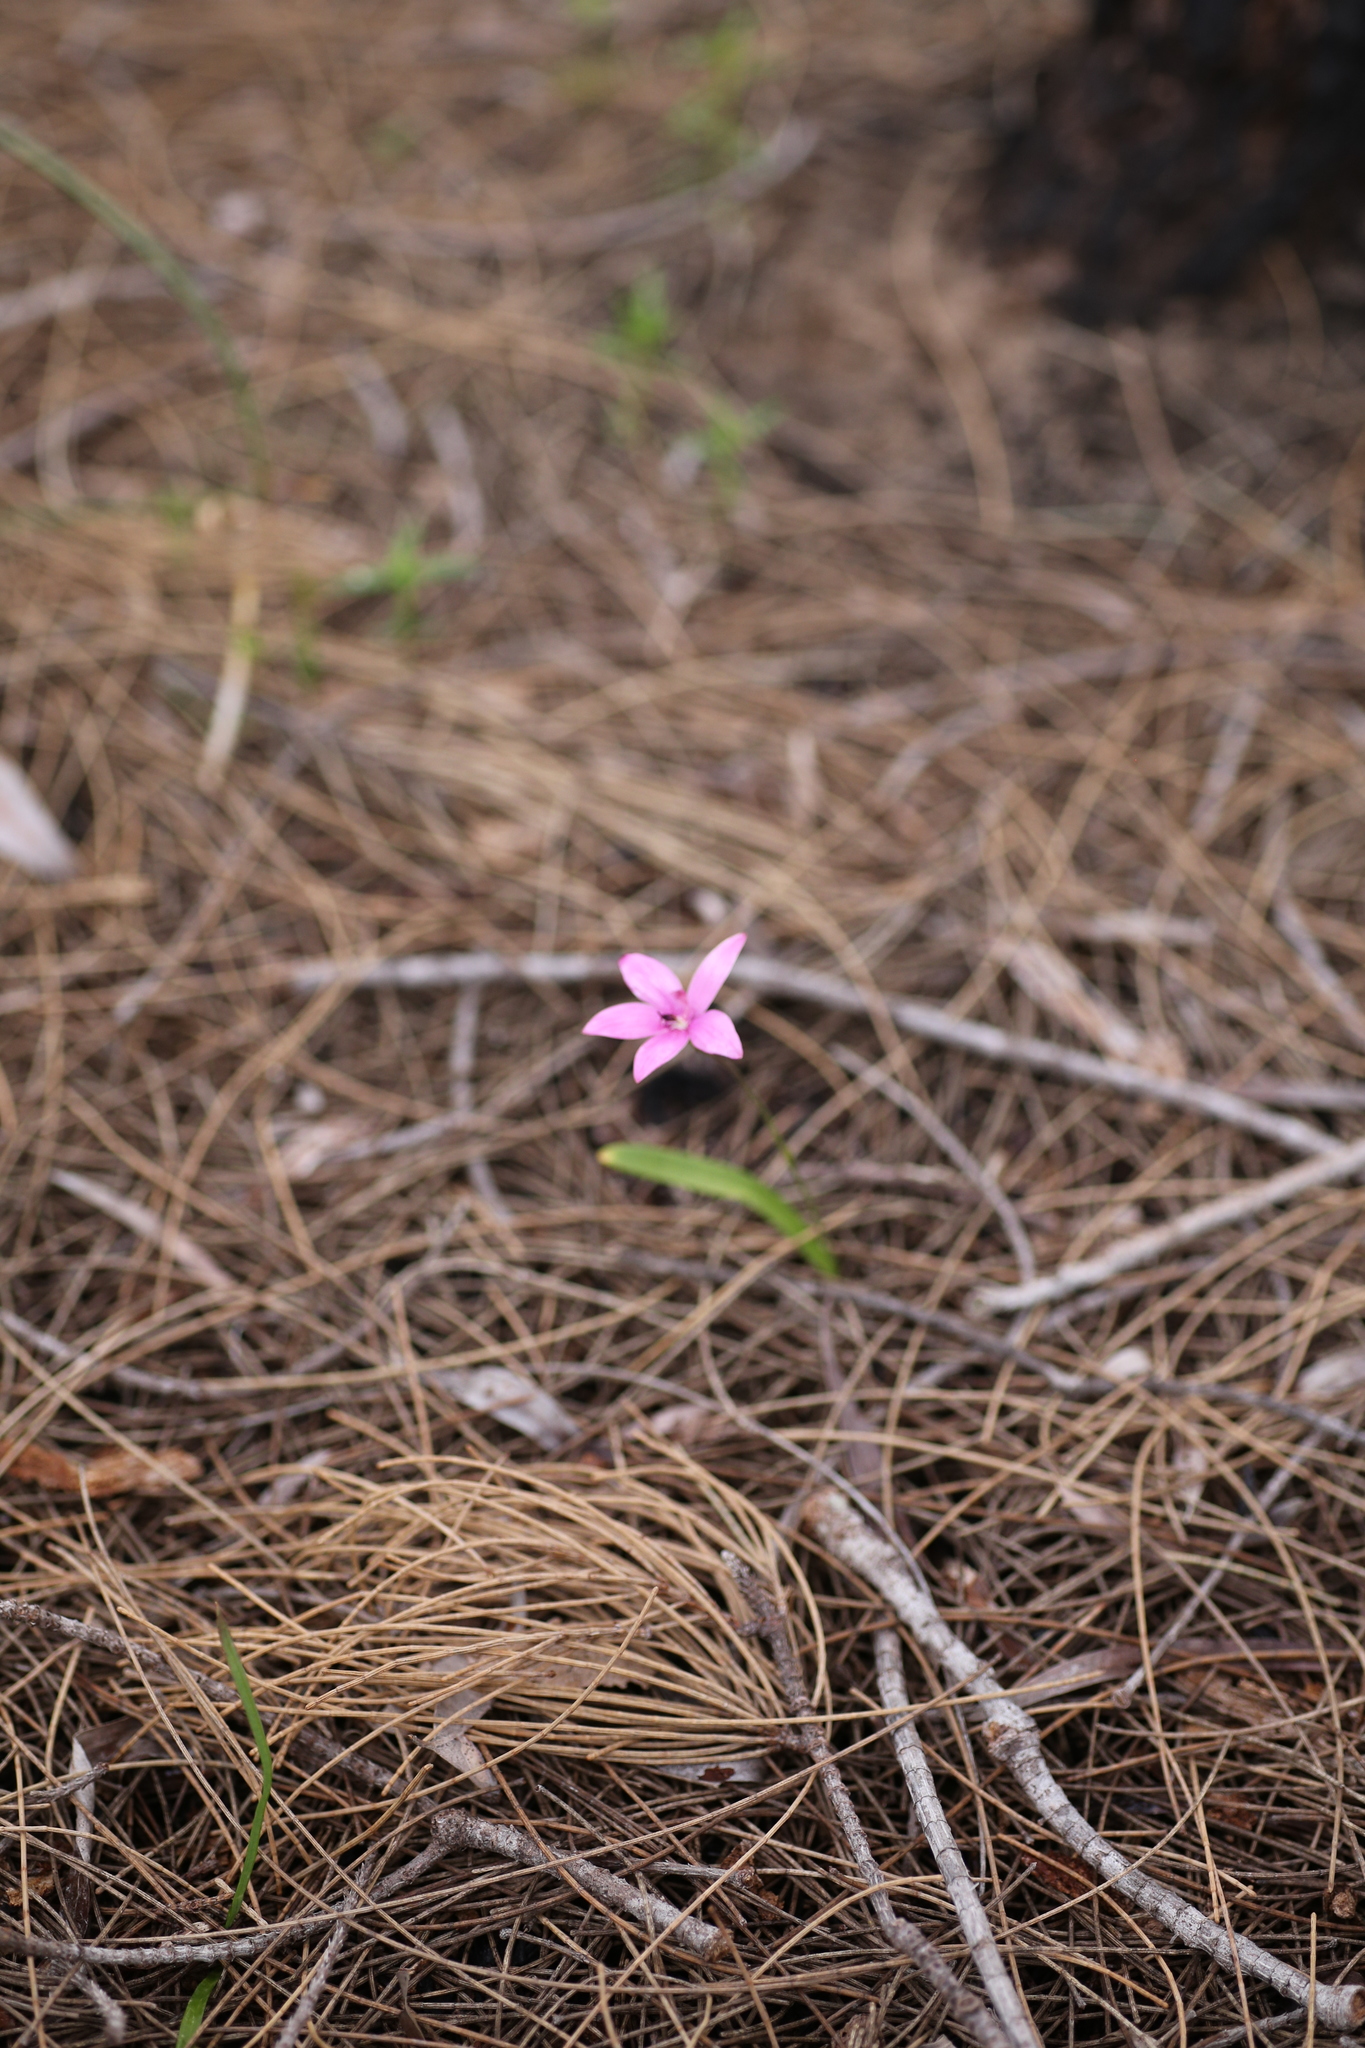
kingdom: Plantae
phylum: Tracheophyta
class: Liliopsida
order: Asparagales
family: Orchidaceae
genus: Caladenia
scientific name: Caladenia emarginata
